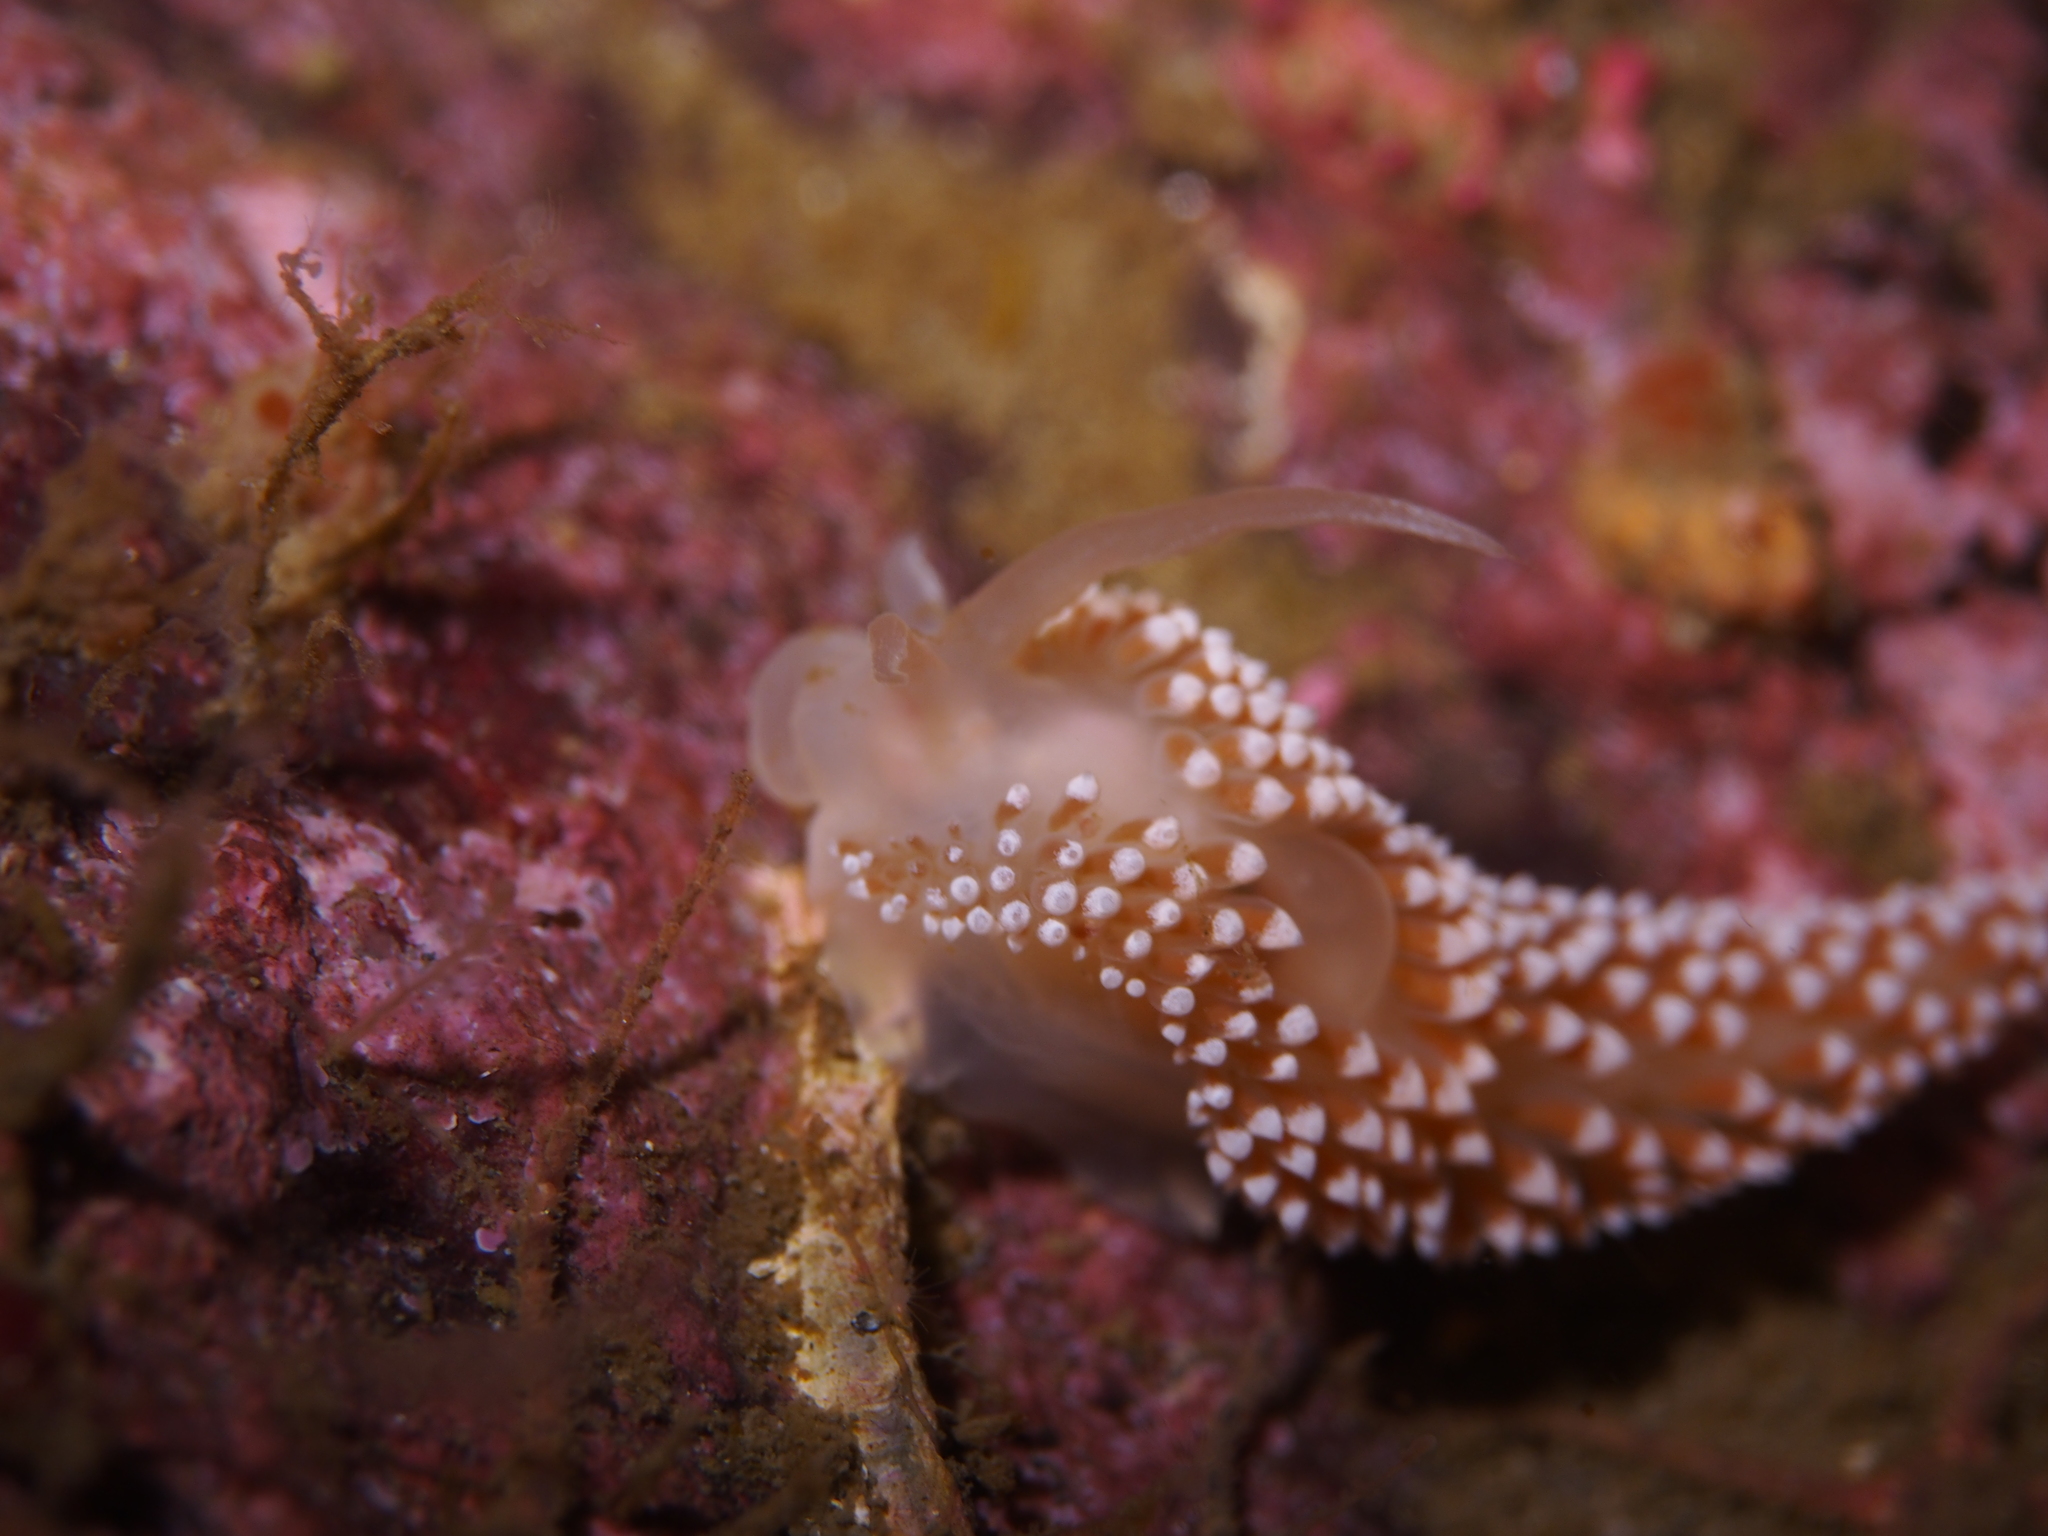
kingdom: Animalia
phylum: Mollusca
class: Gastropoda
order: Nudibranchia
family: Coryphellidae
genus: Coryphella
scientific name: Coryphella verrucosa
